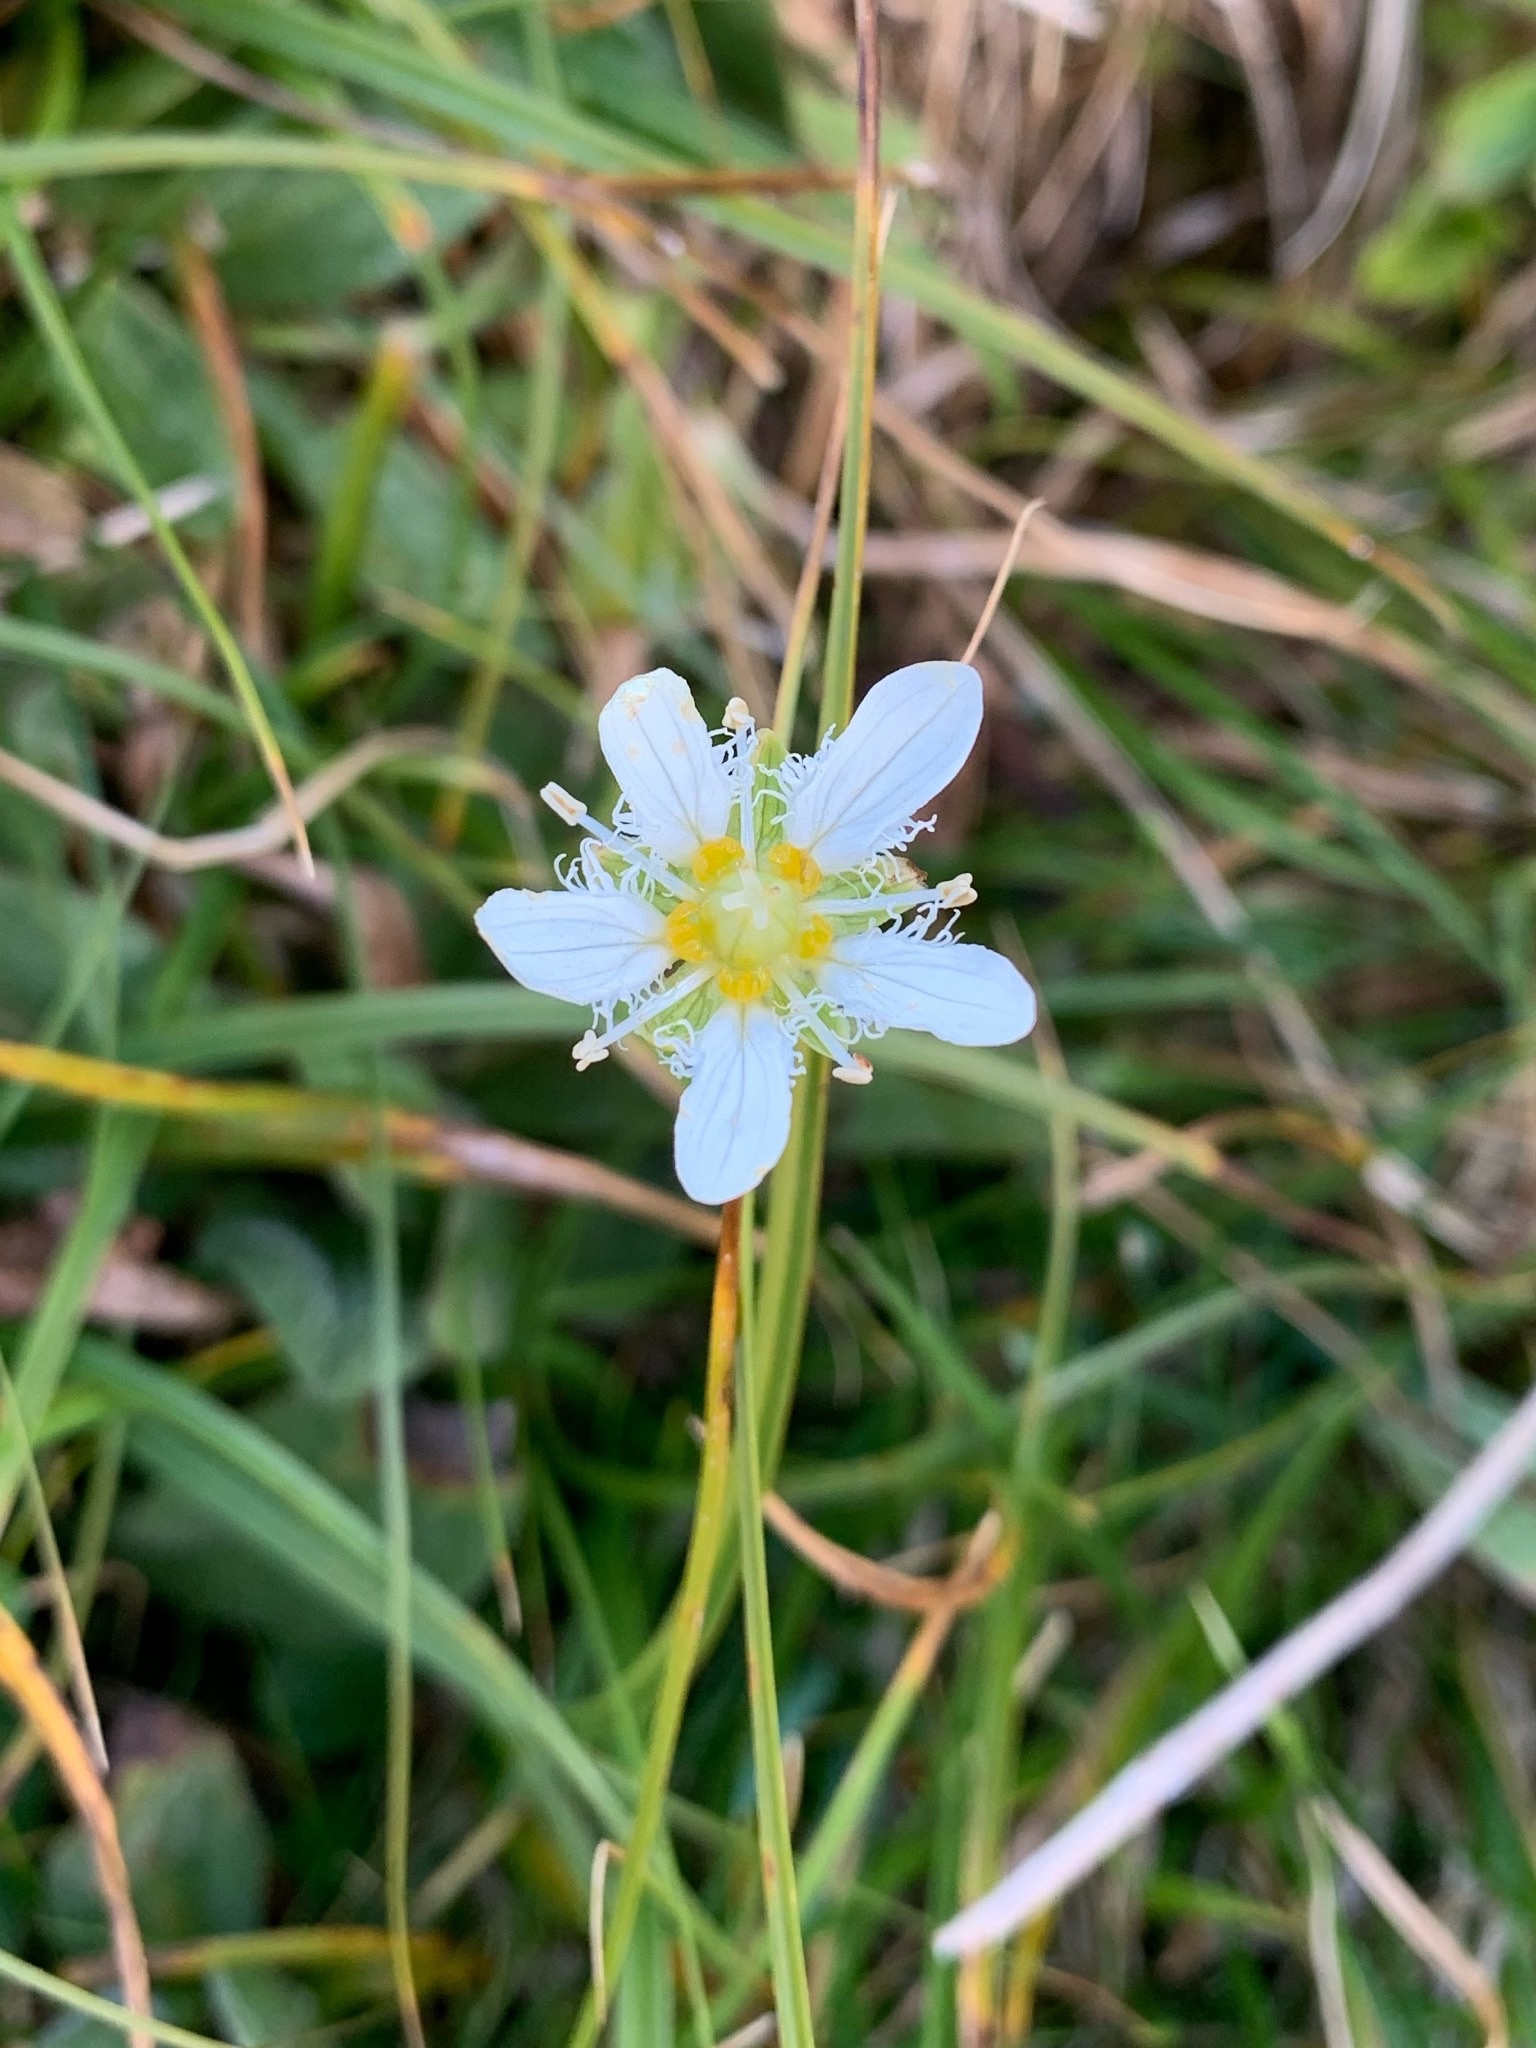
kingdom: Plantae
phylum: Tracheophyta
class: Magnoliopsida
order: Celastrales
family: Parnassiaceae
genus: Parnassia
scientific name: Parnassia fimbriata
